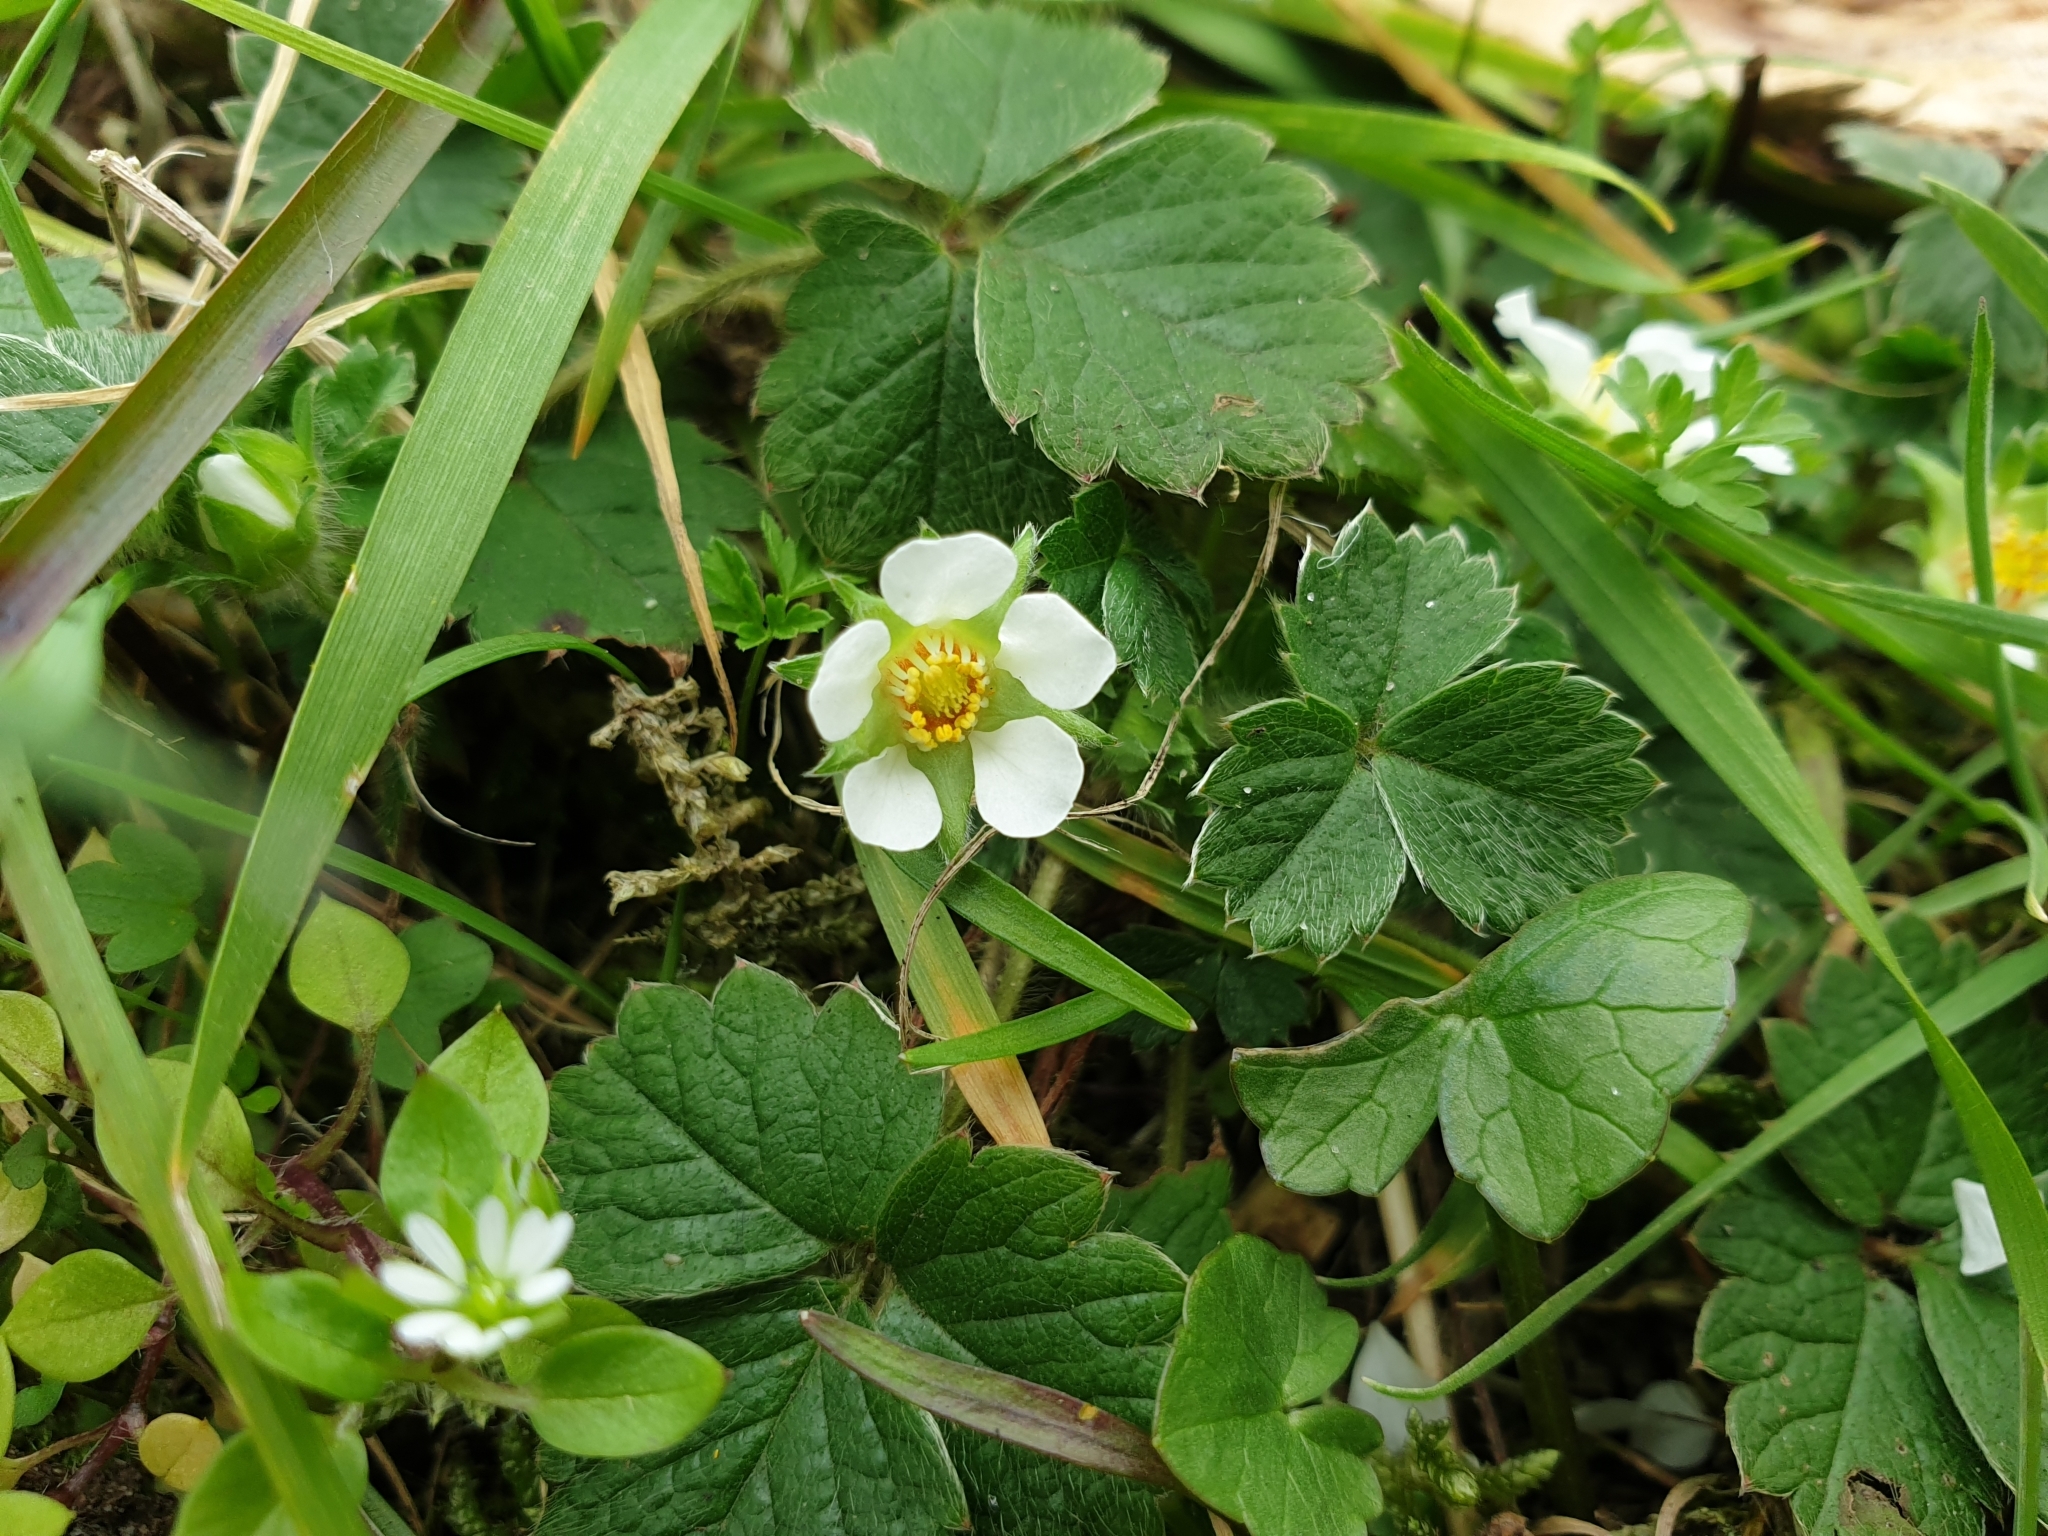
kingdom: Plantae
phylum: Tracheophyta
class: Magnoliopsida
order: Rosales
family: Rosaceae
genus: Potentilla
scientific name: Potentilla sterilis
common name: Barren strawberry
